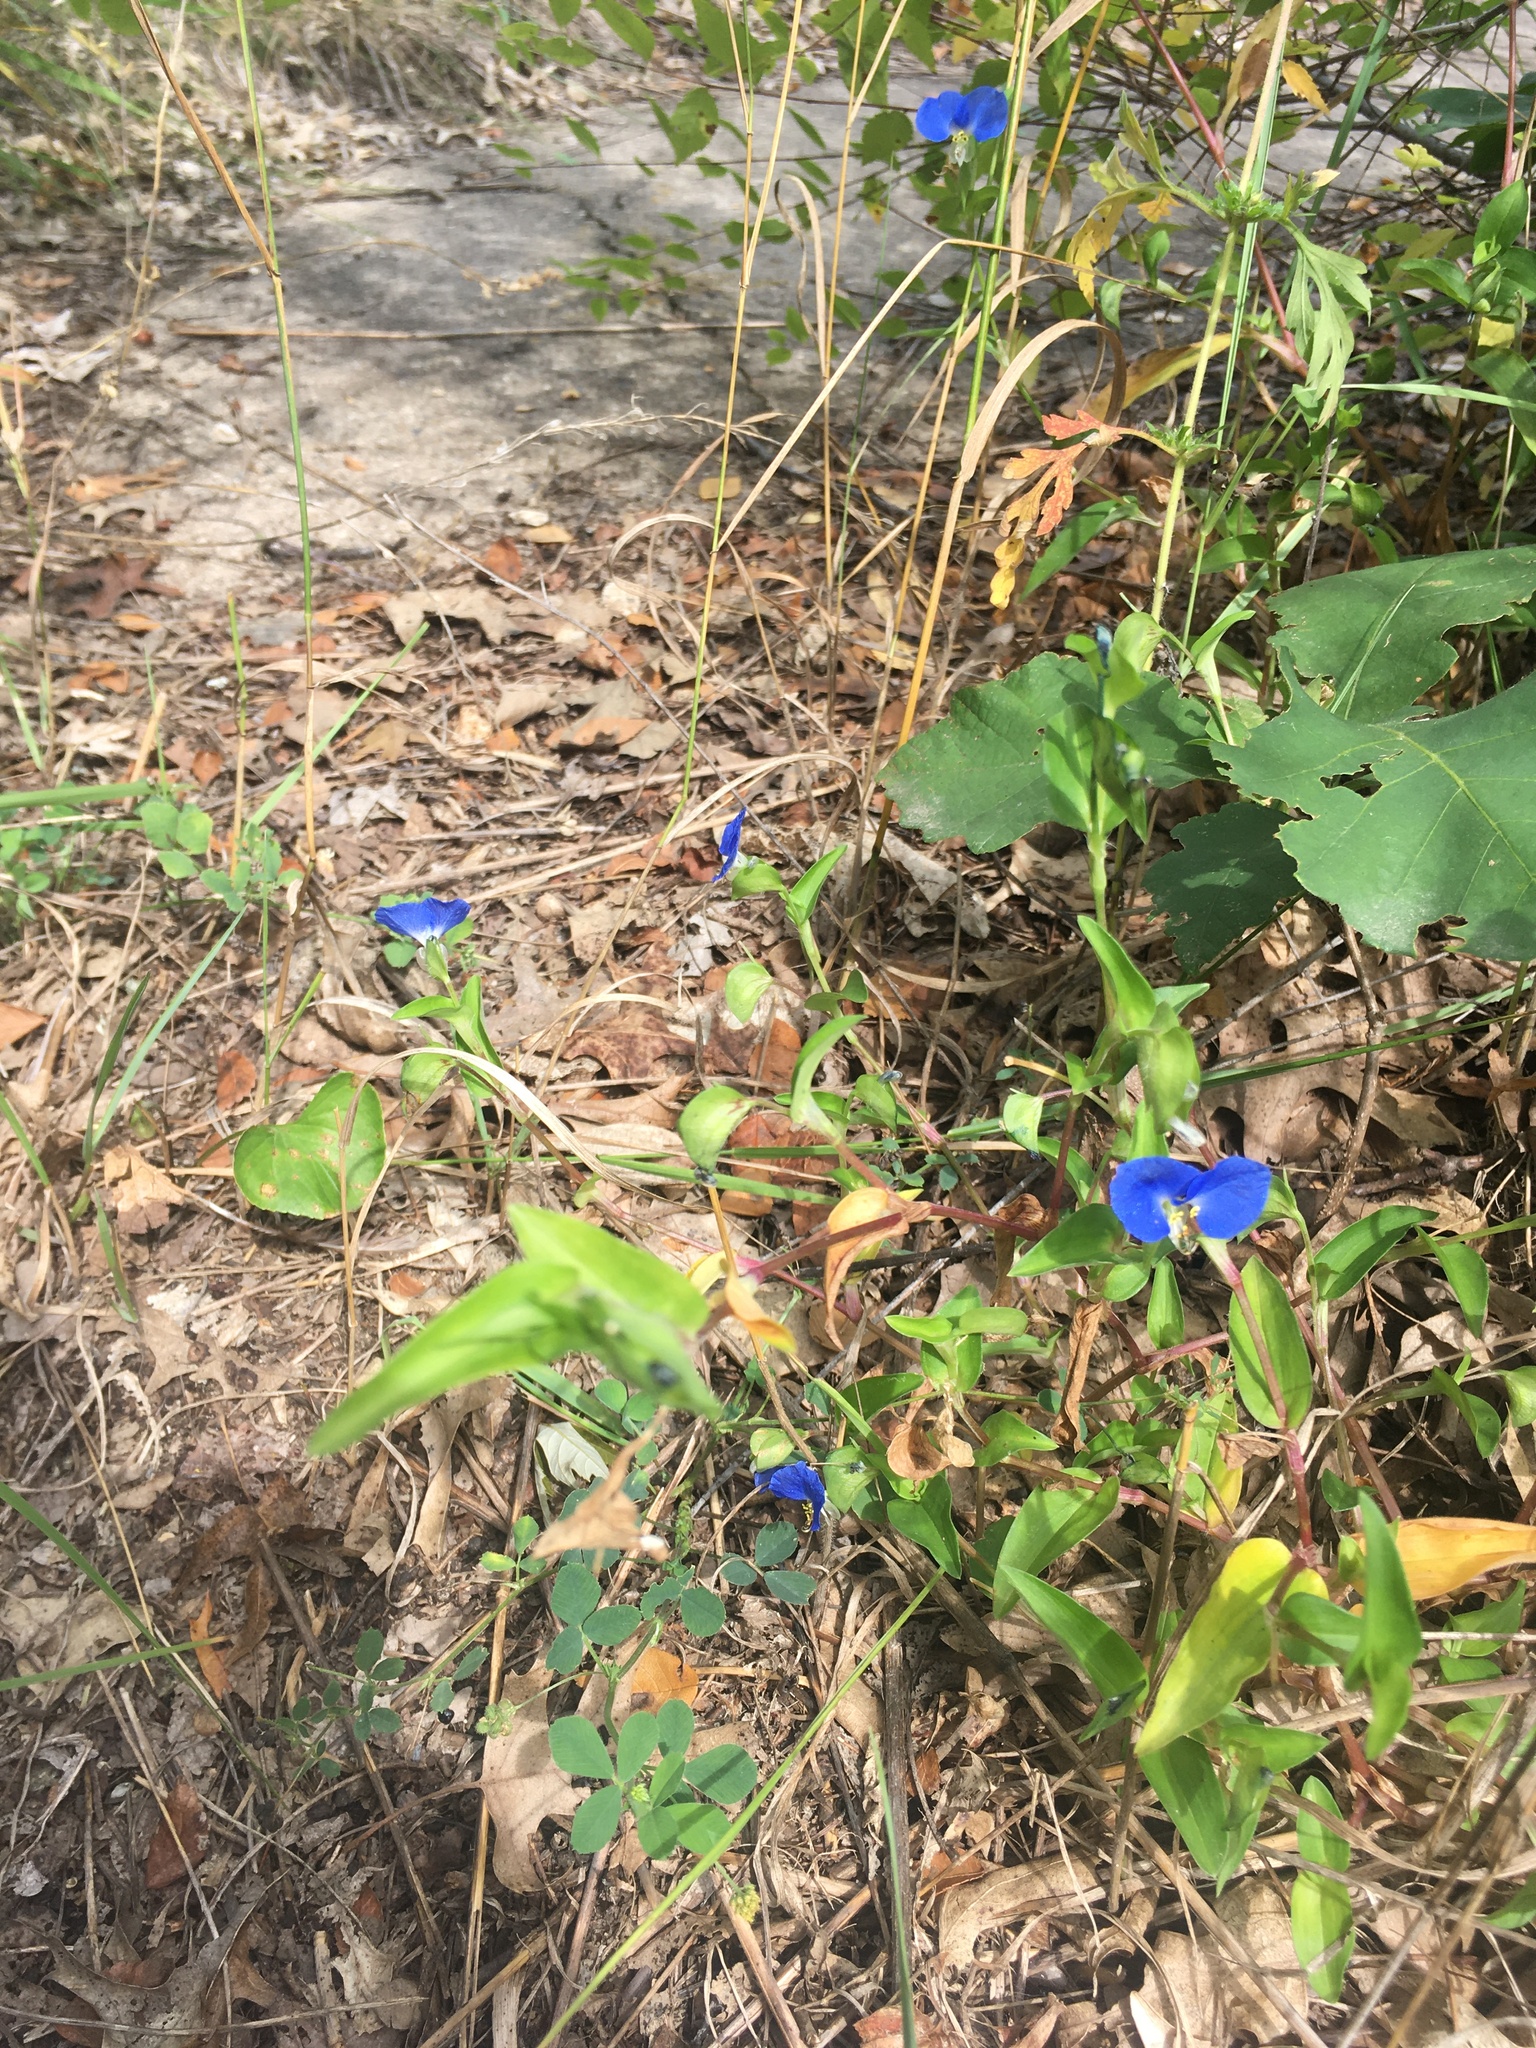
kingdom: Plantae
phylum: Tracheophyta
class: Liliopsida
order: Commelinales
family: Commelinaceae
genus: Commelina
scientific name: Commelina communis
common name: Asiatic dayflower
